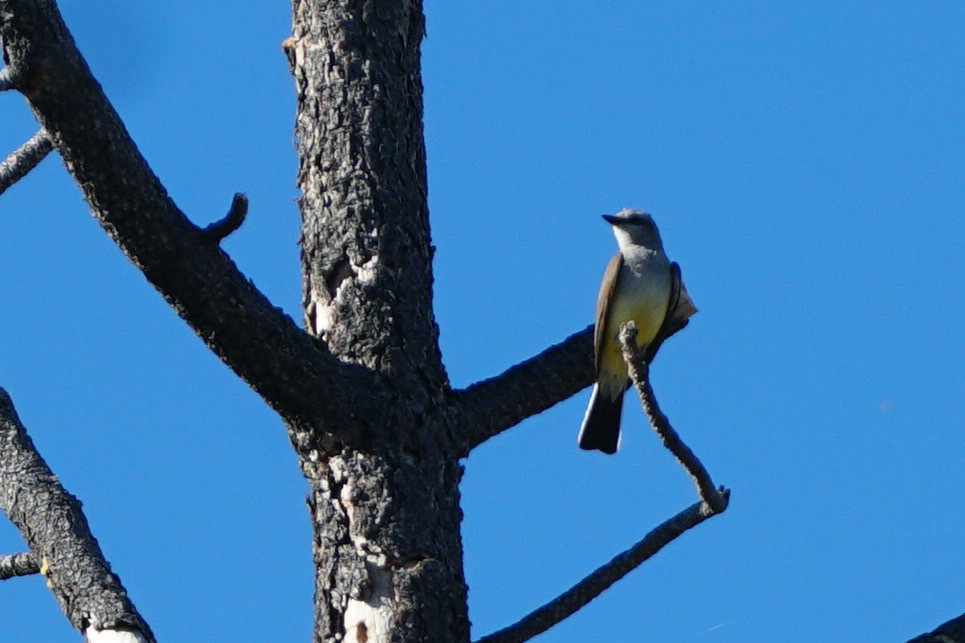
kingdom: Animalia
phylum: Chordata
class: Aves
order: Passeriformes
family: Tyrannidae
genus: Tyrannus
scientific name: Tyrannus verticalis
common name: Western kingbird
